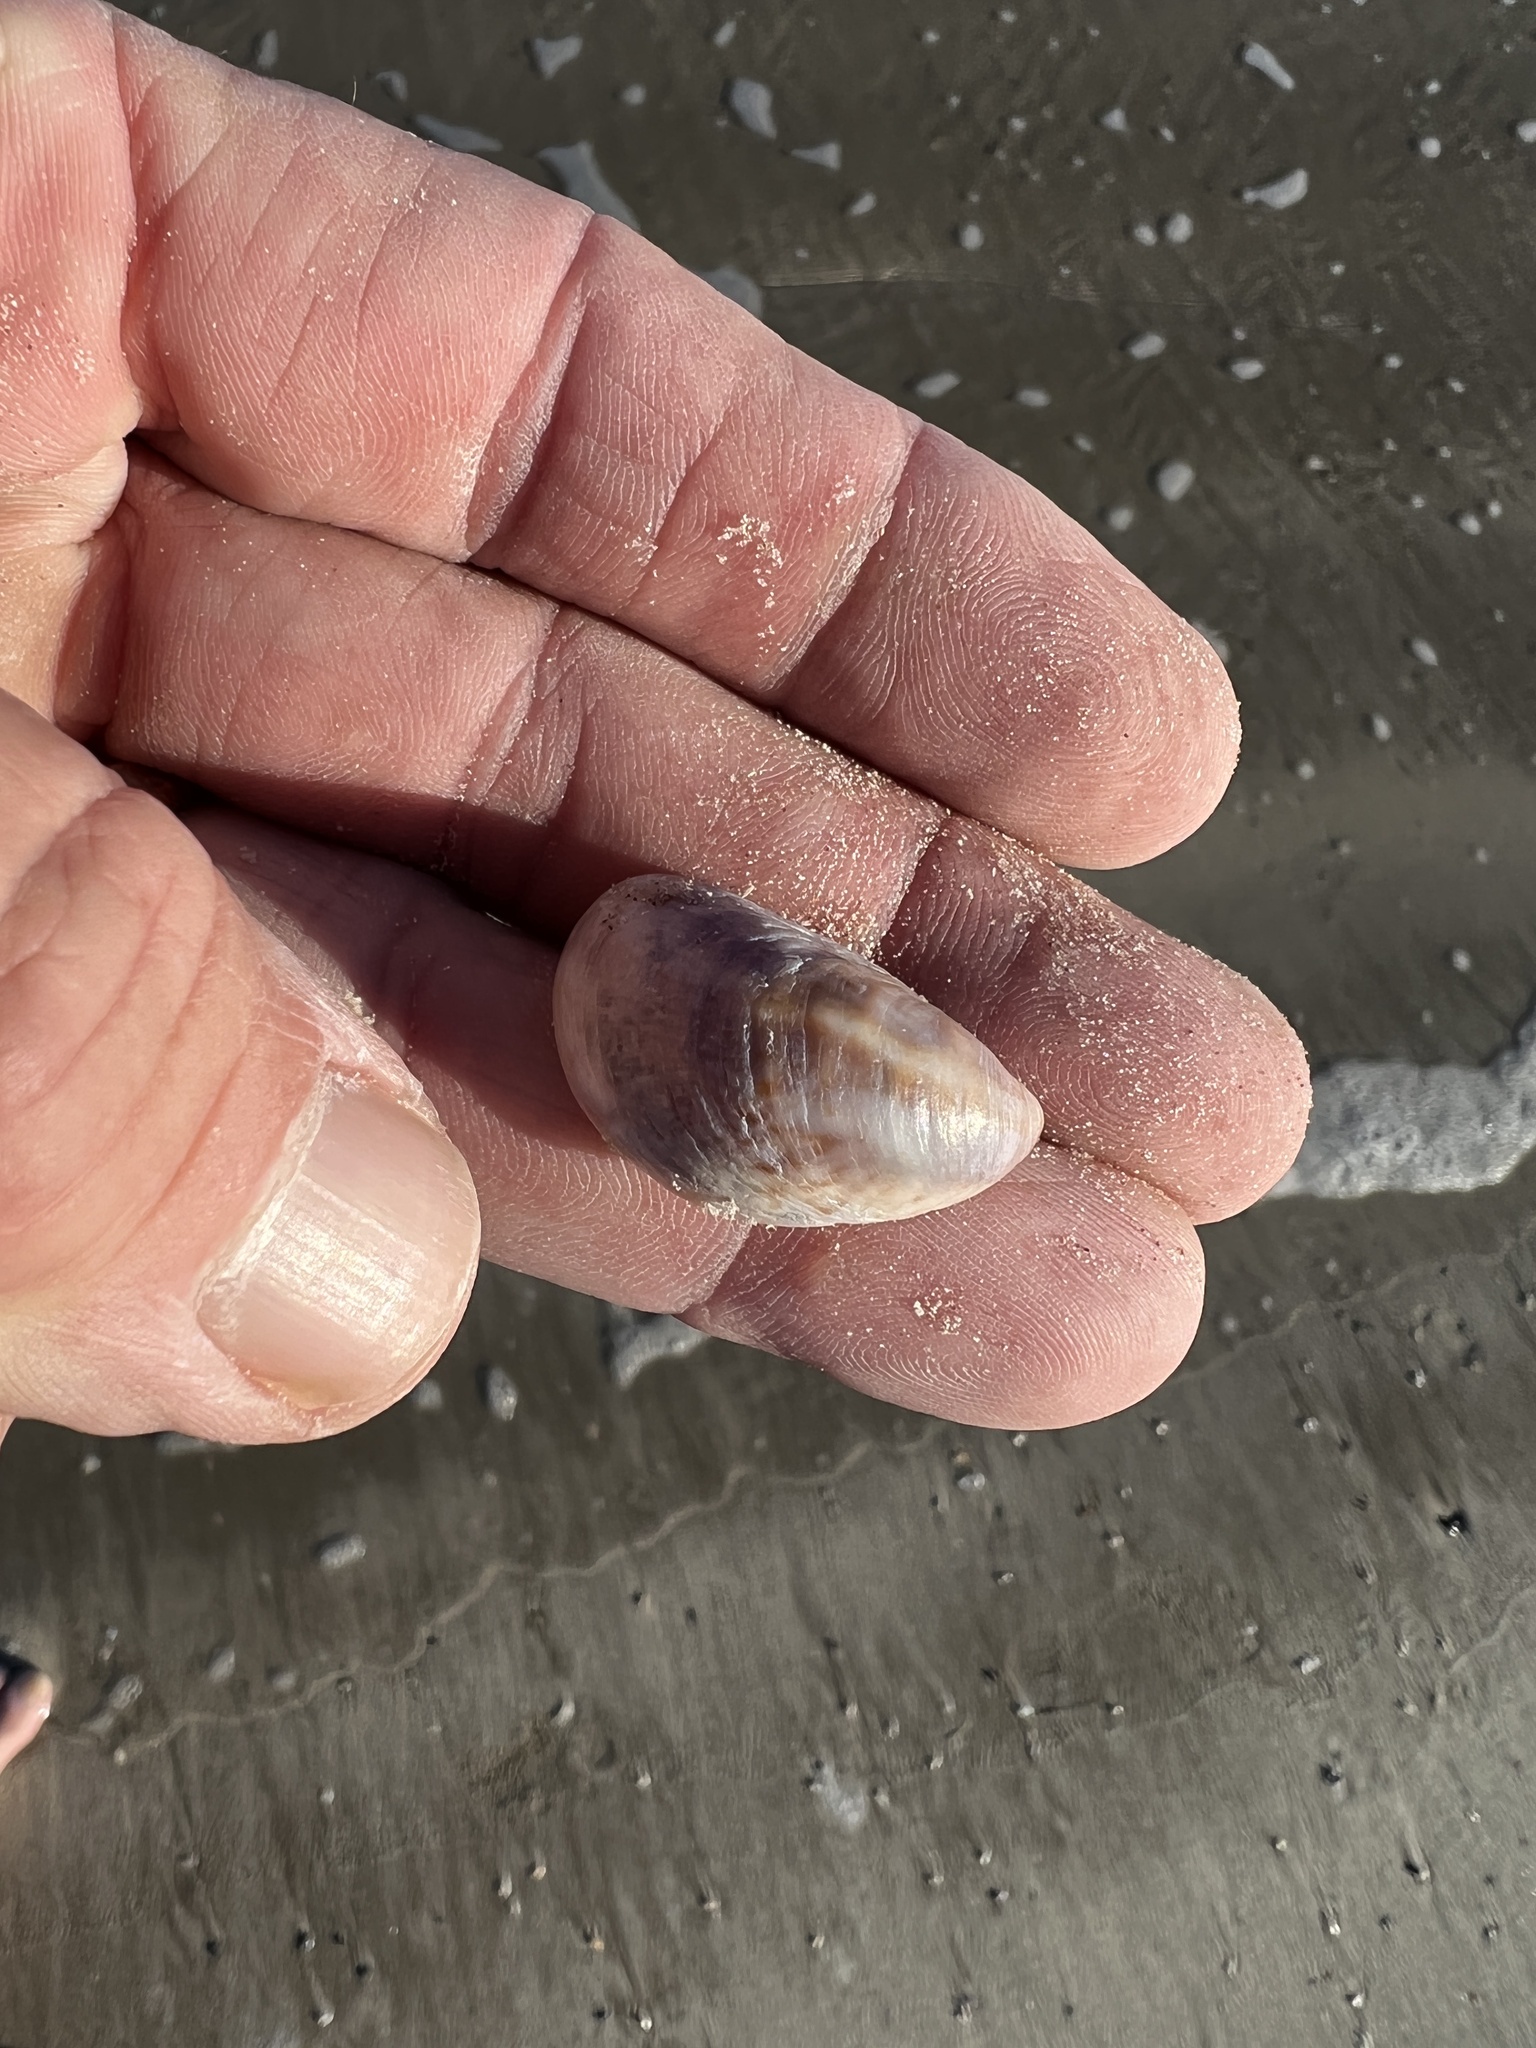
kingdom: Animalia
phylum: Mollusca
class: Gastropoda
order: Littorinimorpha
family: Calyptraeidae
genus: Crepidula
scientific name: Crepidula fornicata
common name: Slipper limpet
